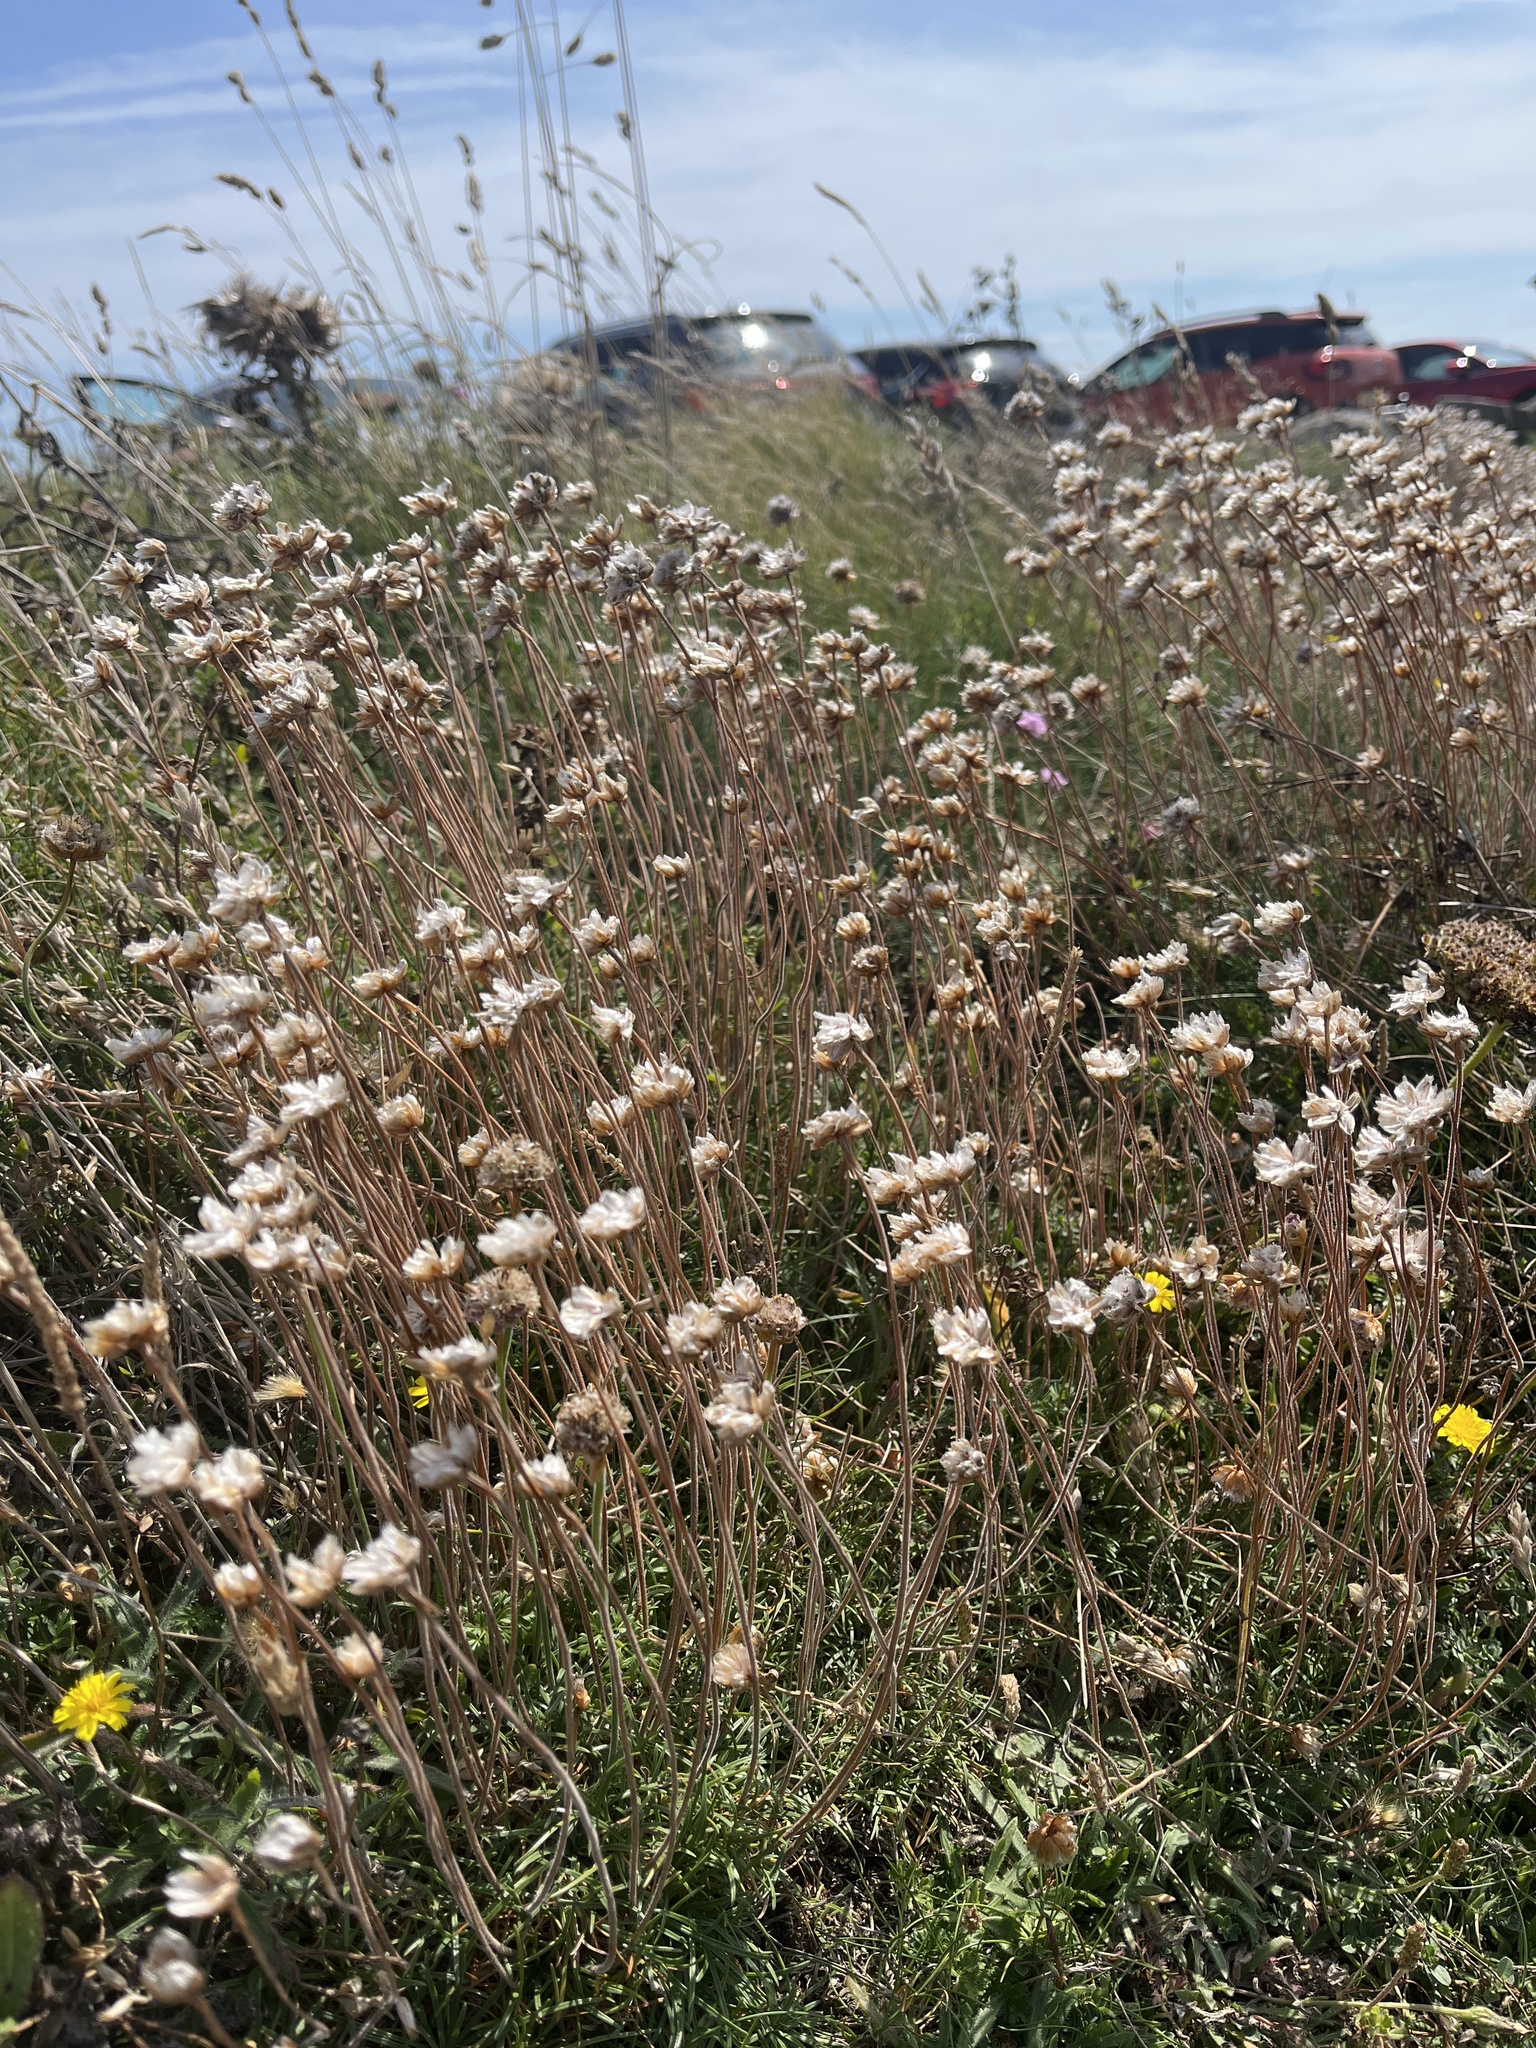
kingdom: Plantae
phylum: Tracheophyta
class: Magnoliopsida
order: Caryophyllales
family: Plumbaginaceae
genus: Armeria
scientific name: Armeria maritima
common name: Thrift
